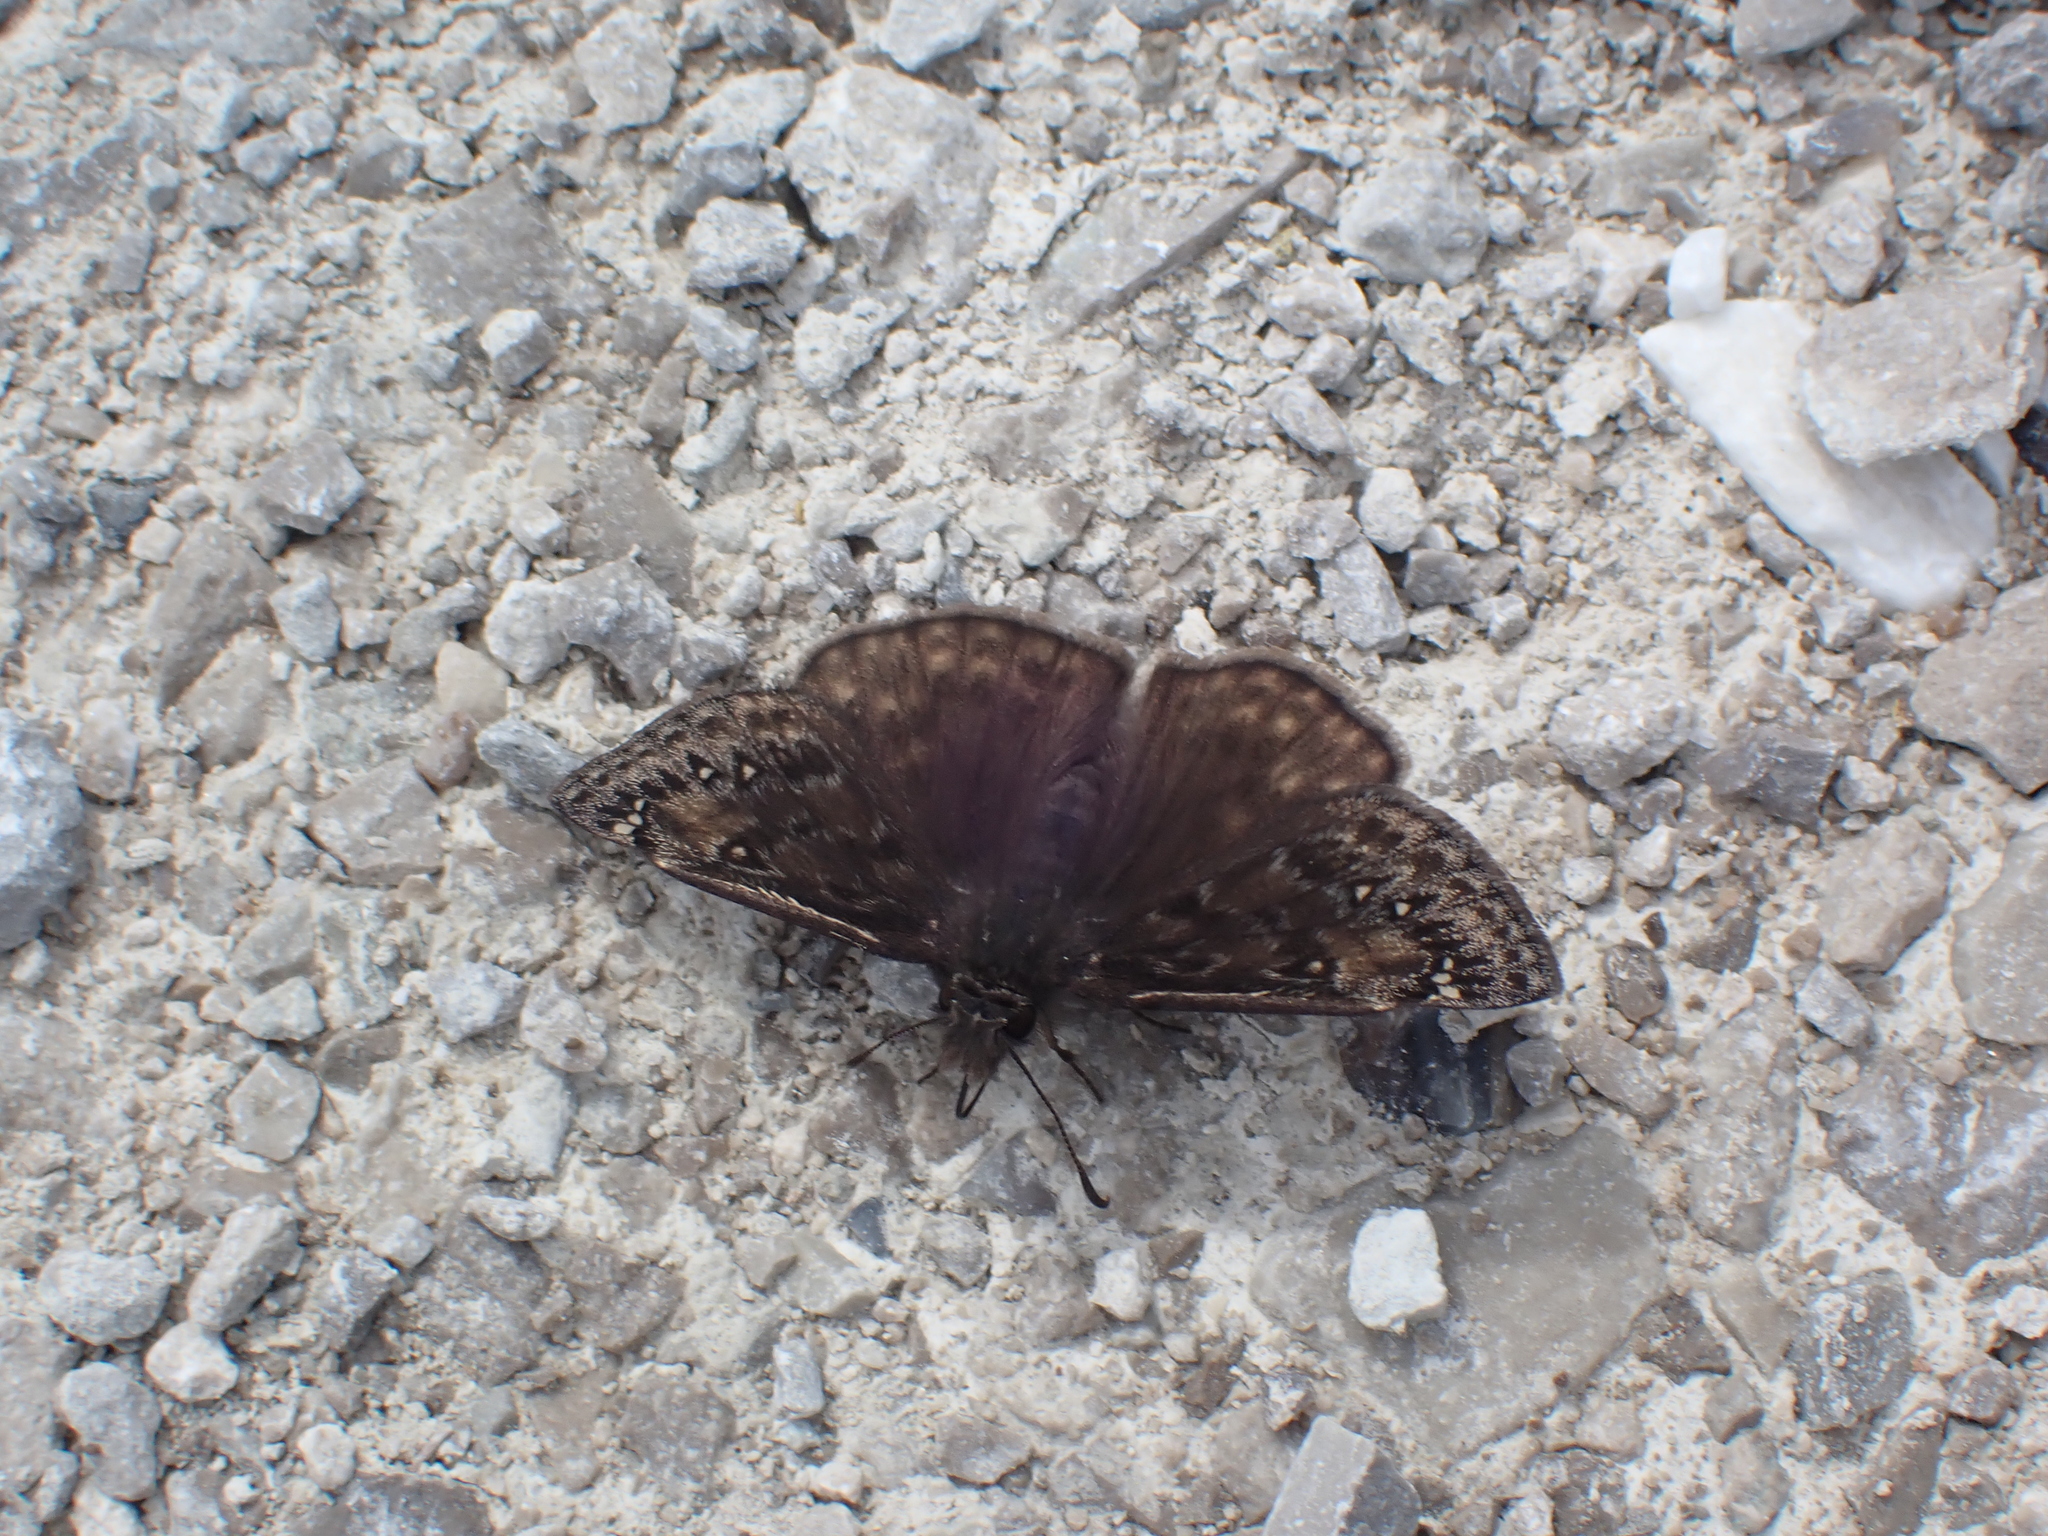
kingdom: Animalia
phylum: Arthropoda
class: Insecta
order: Lepidoptera
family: Hesperiidae
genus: Erynnis
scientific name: Erynnis juvenalis
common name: Juvenal's duskywing
